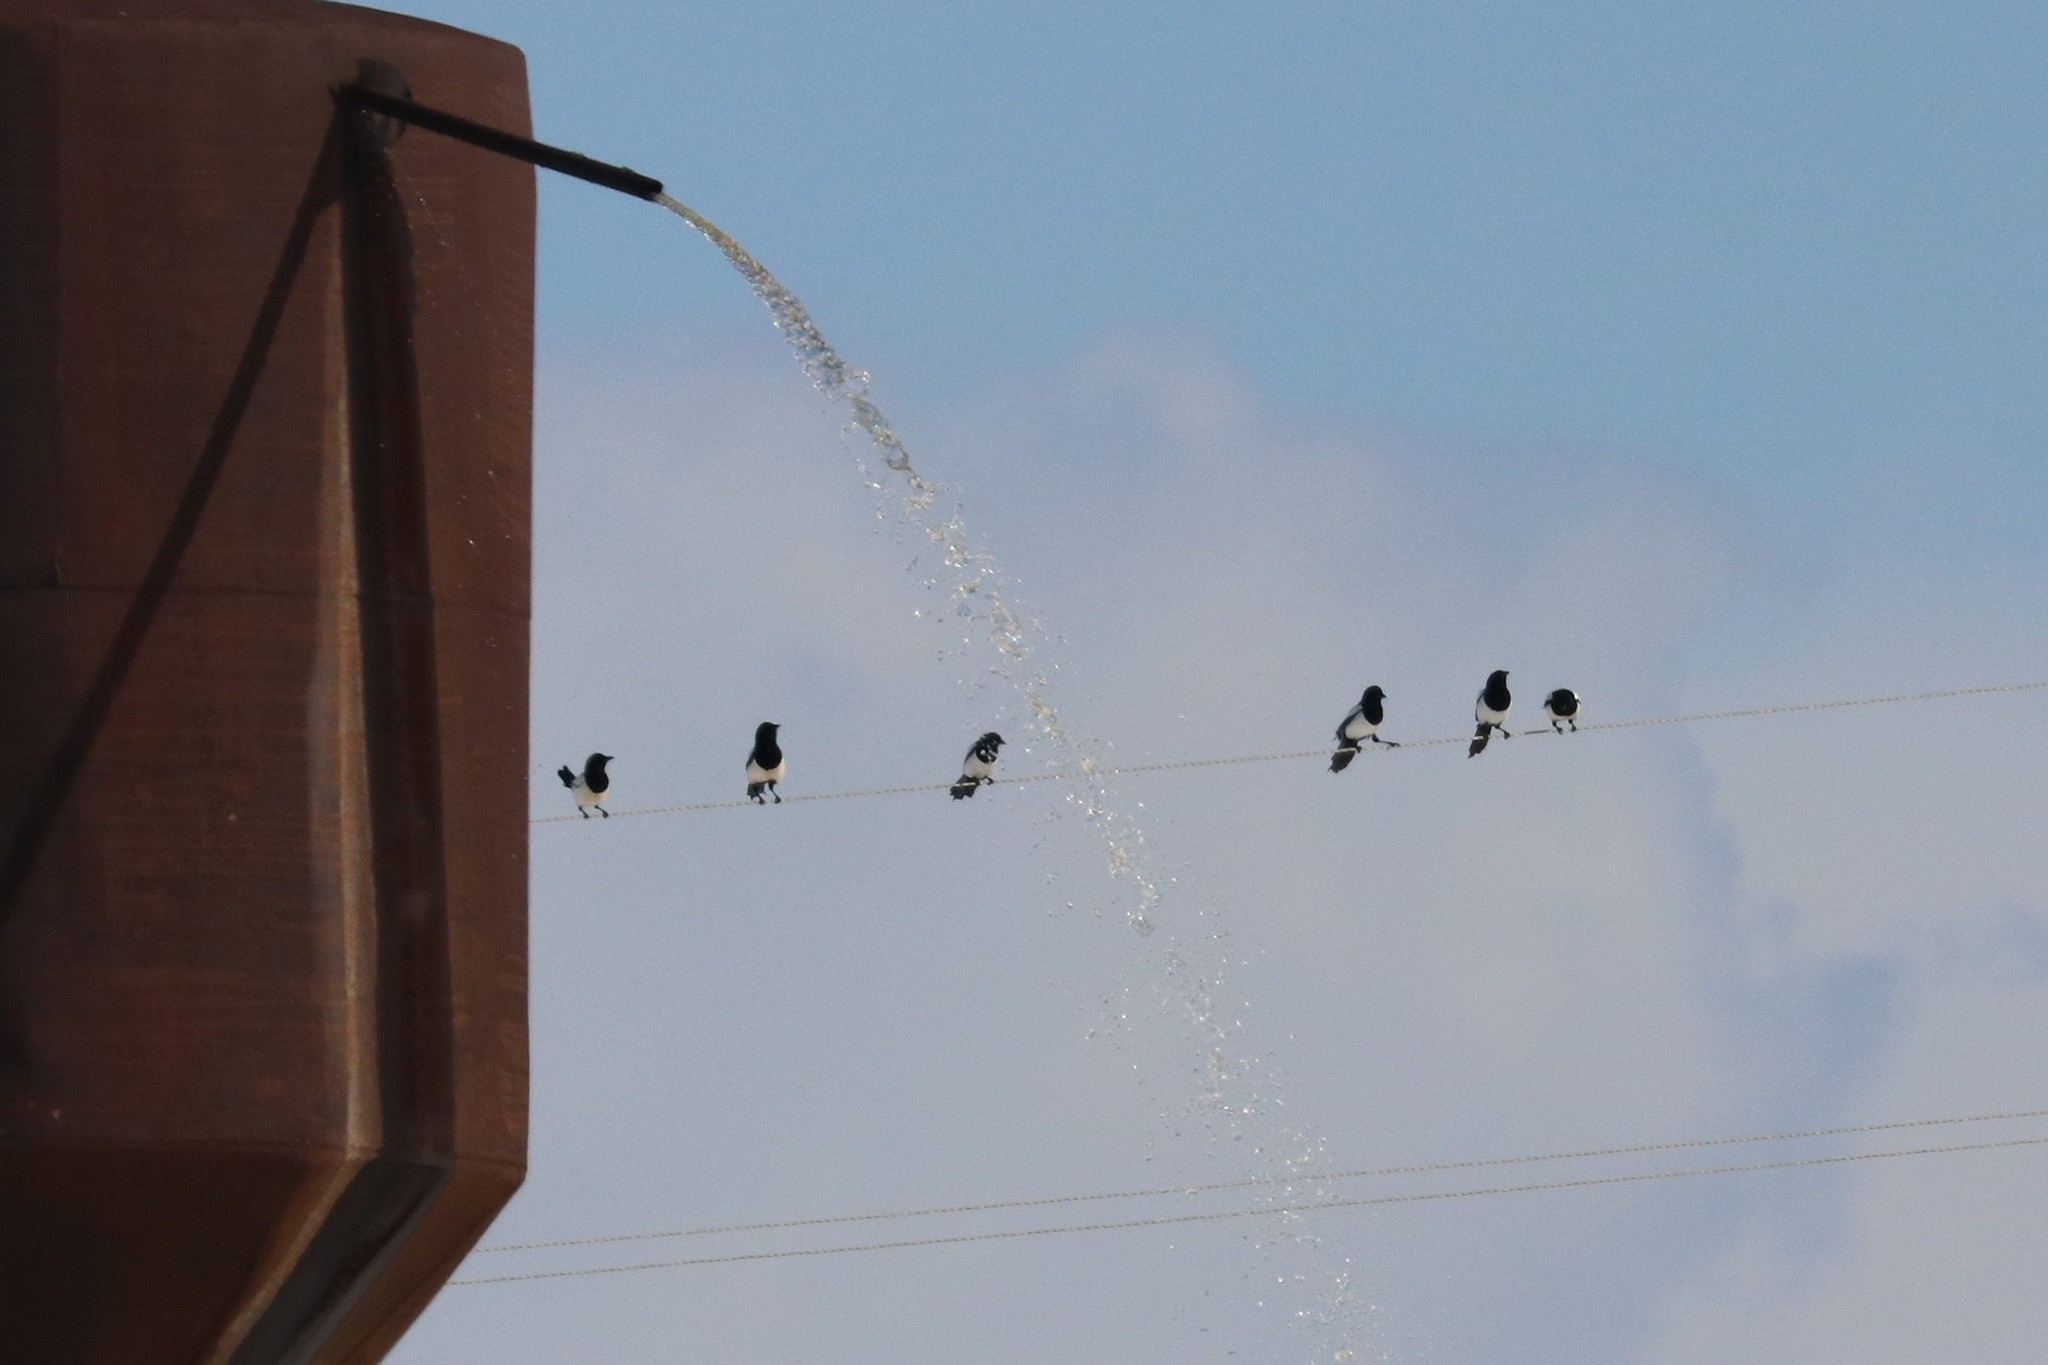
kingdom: Animalia
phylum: Chordata
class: Aves
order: Passeriformes
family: Corvidae
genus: Pica
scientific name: Pica pica
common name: Eurasian magpie
